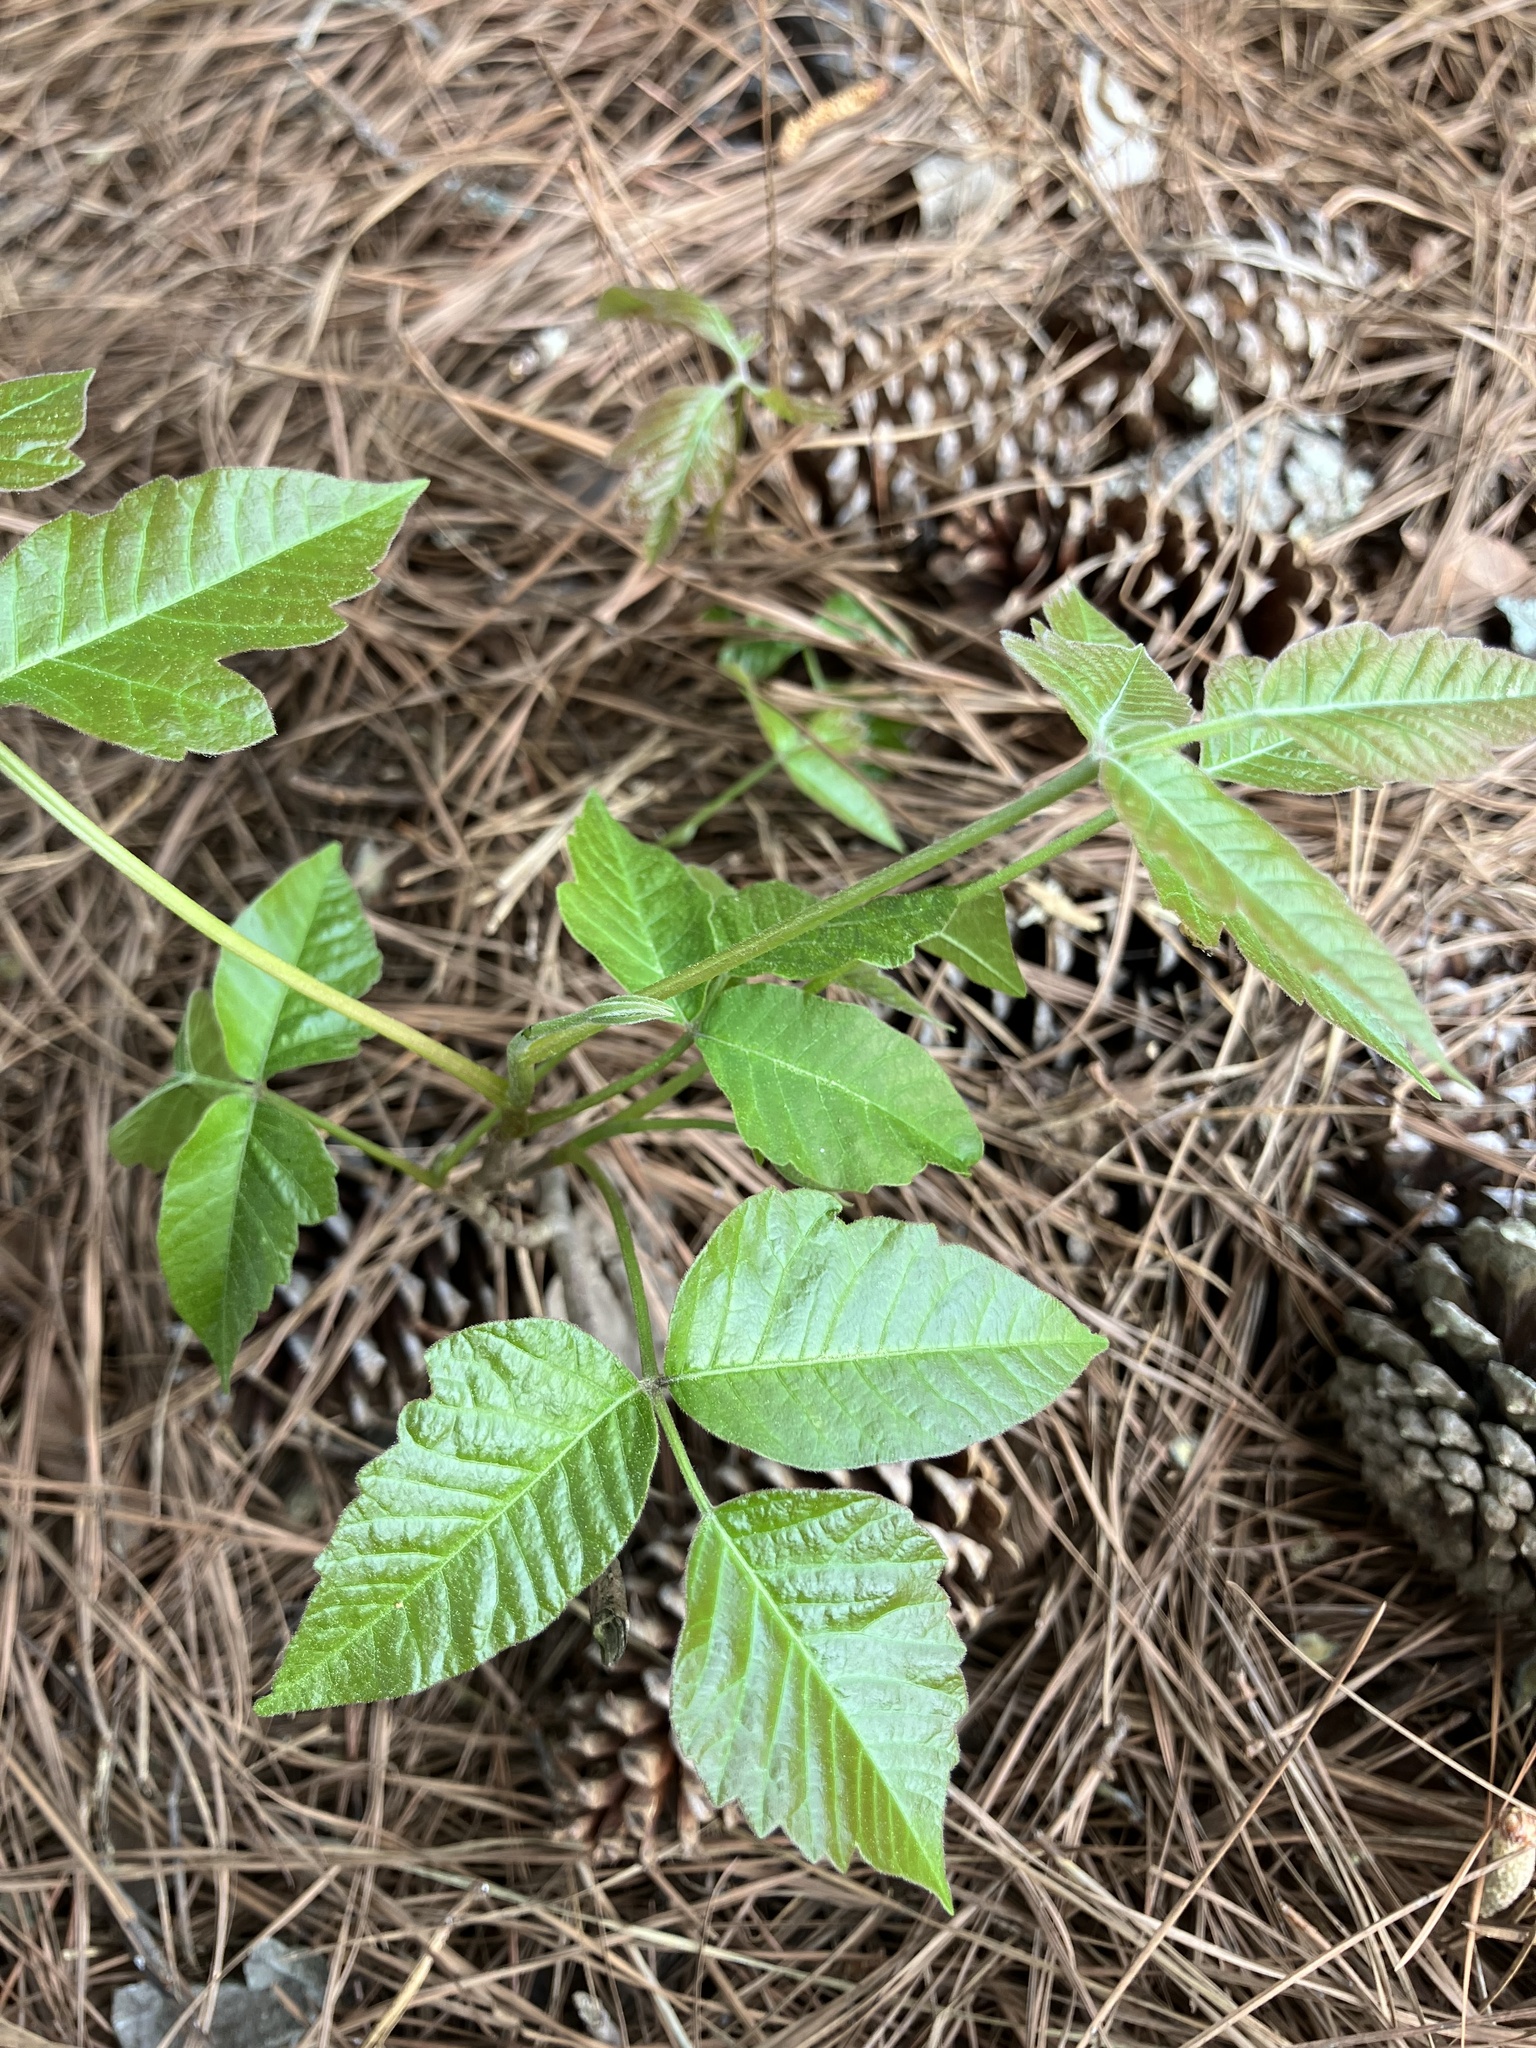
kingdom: Plantae
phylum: Tracheophyta
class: Magnoliopsida
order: Sapindales
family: Anacardiaceae
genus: Toxicodendron
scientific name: Toxicodendron radicans
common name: Poison ivy
